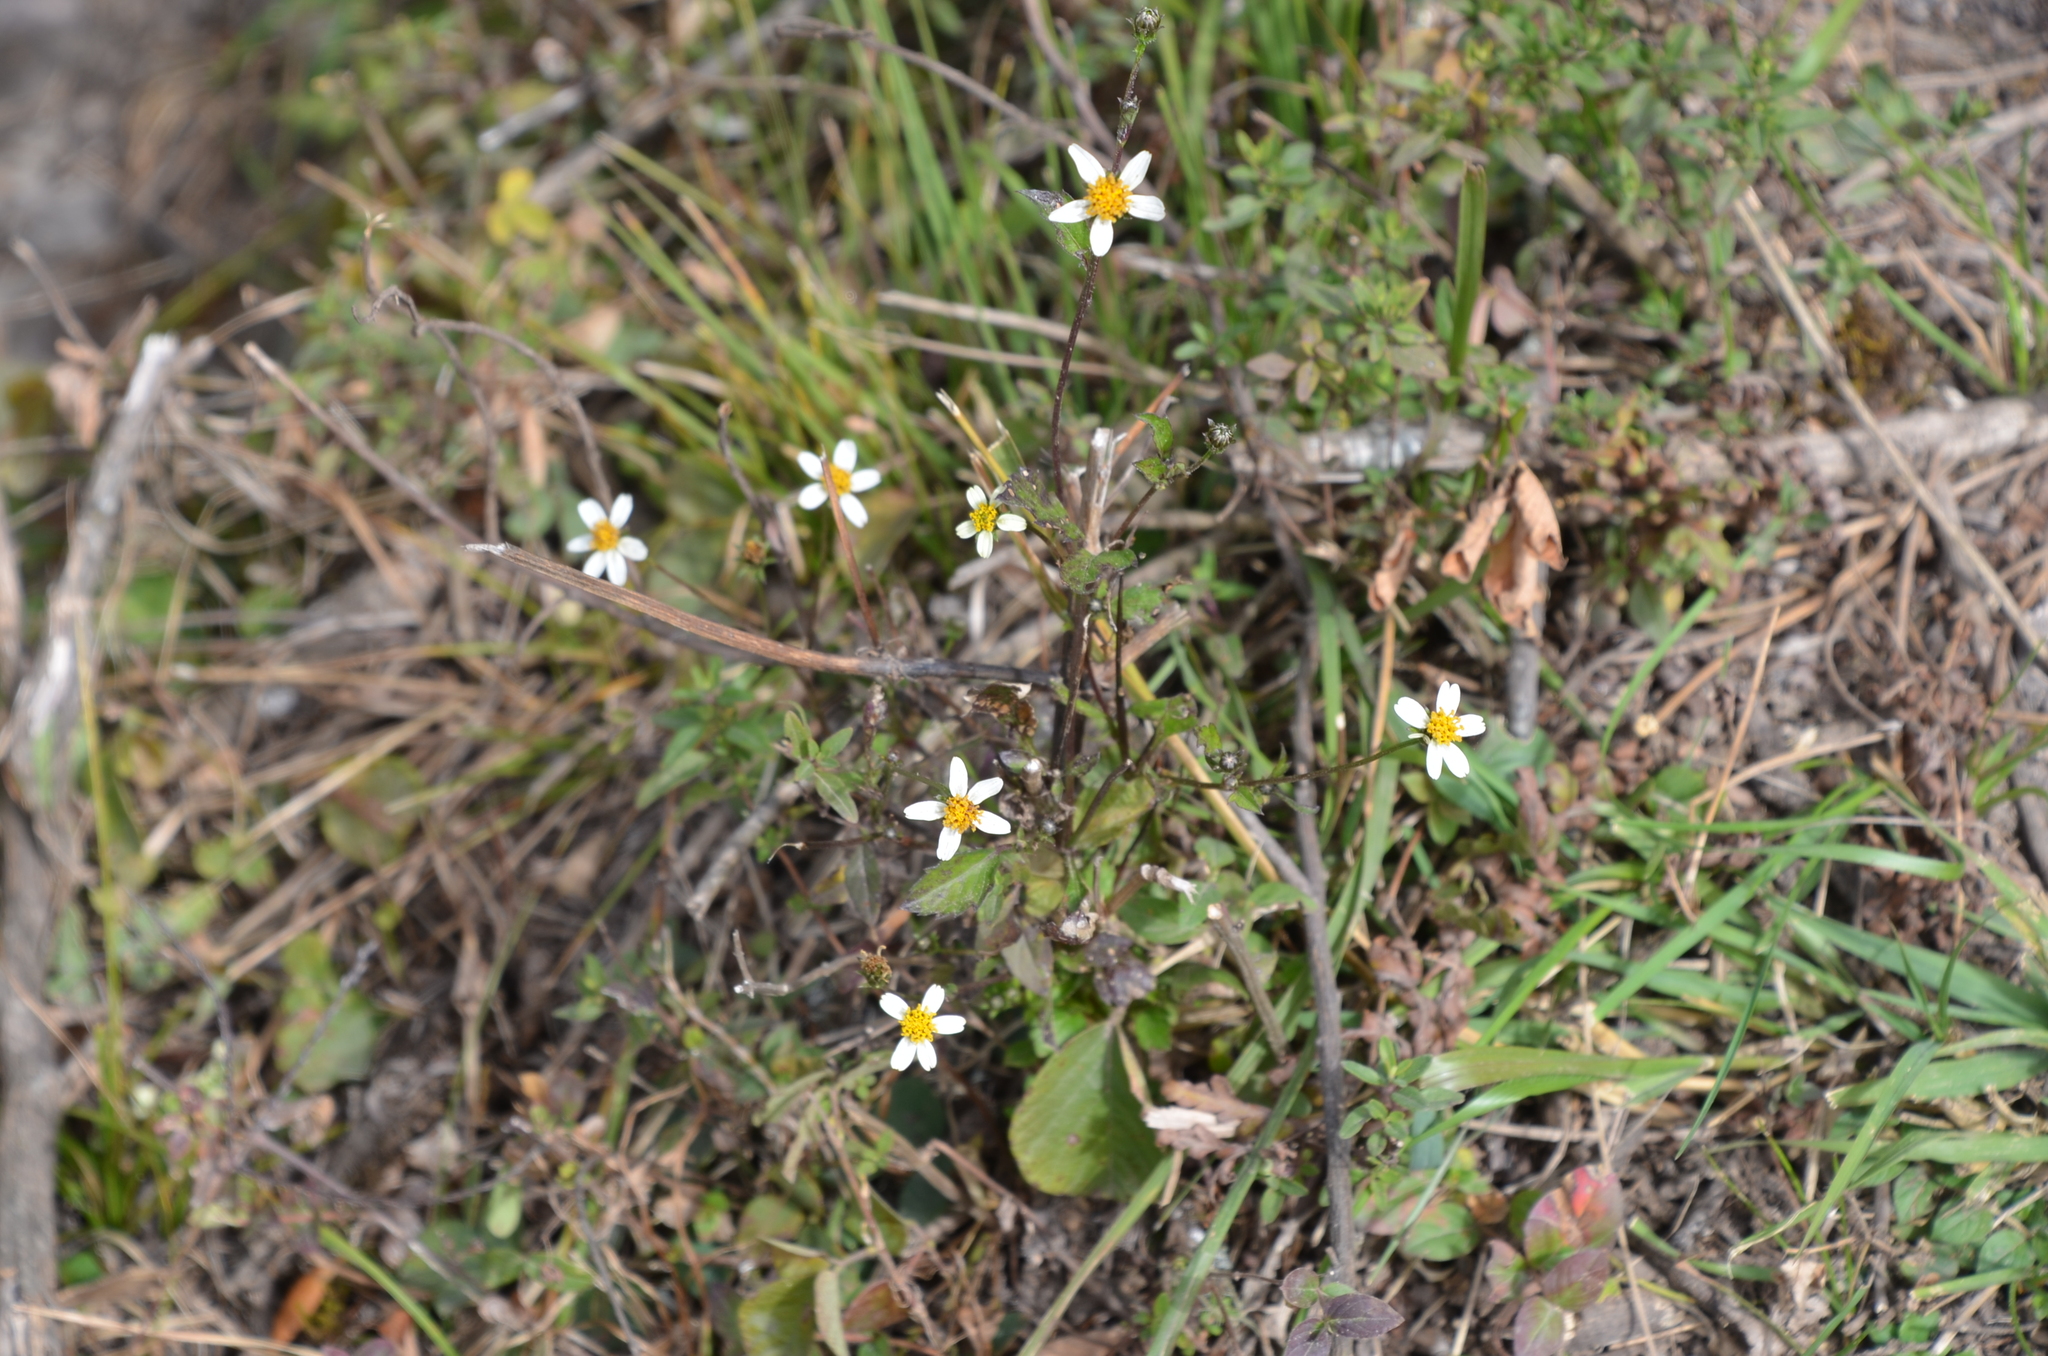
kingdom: Plantae
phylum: Tracheophyta
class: Magnoliopsida
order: Asterales
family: Asteraceae
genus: Bidens
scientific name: Bidens pilosa
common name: Black-jack
